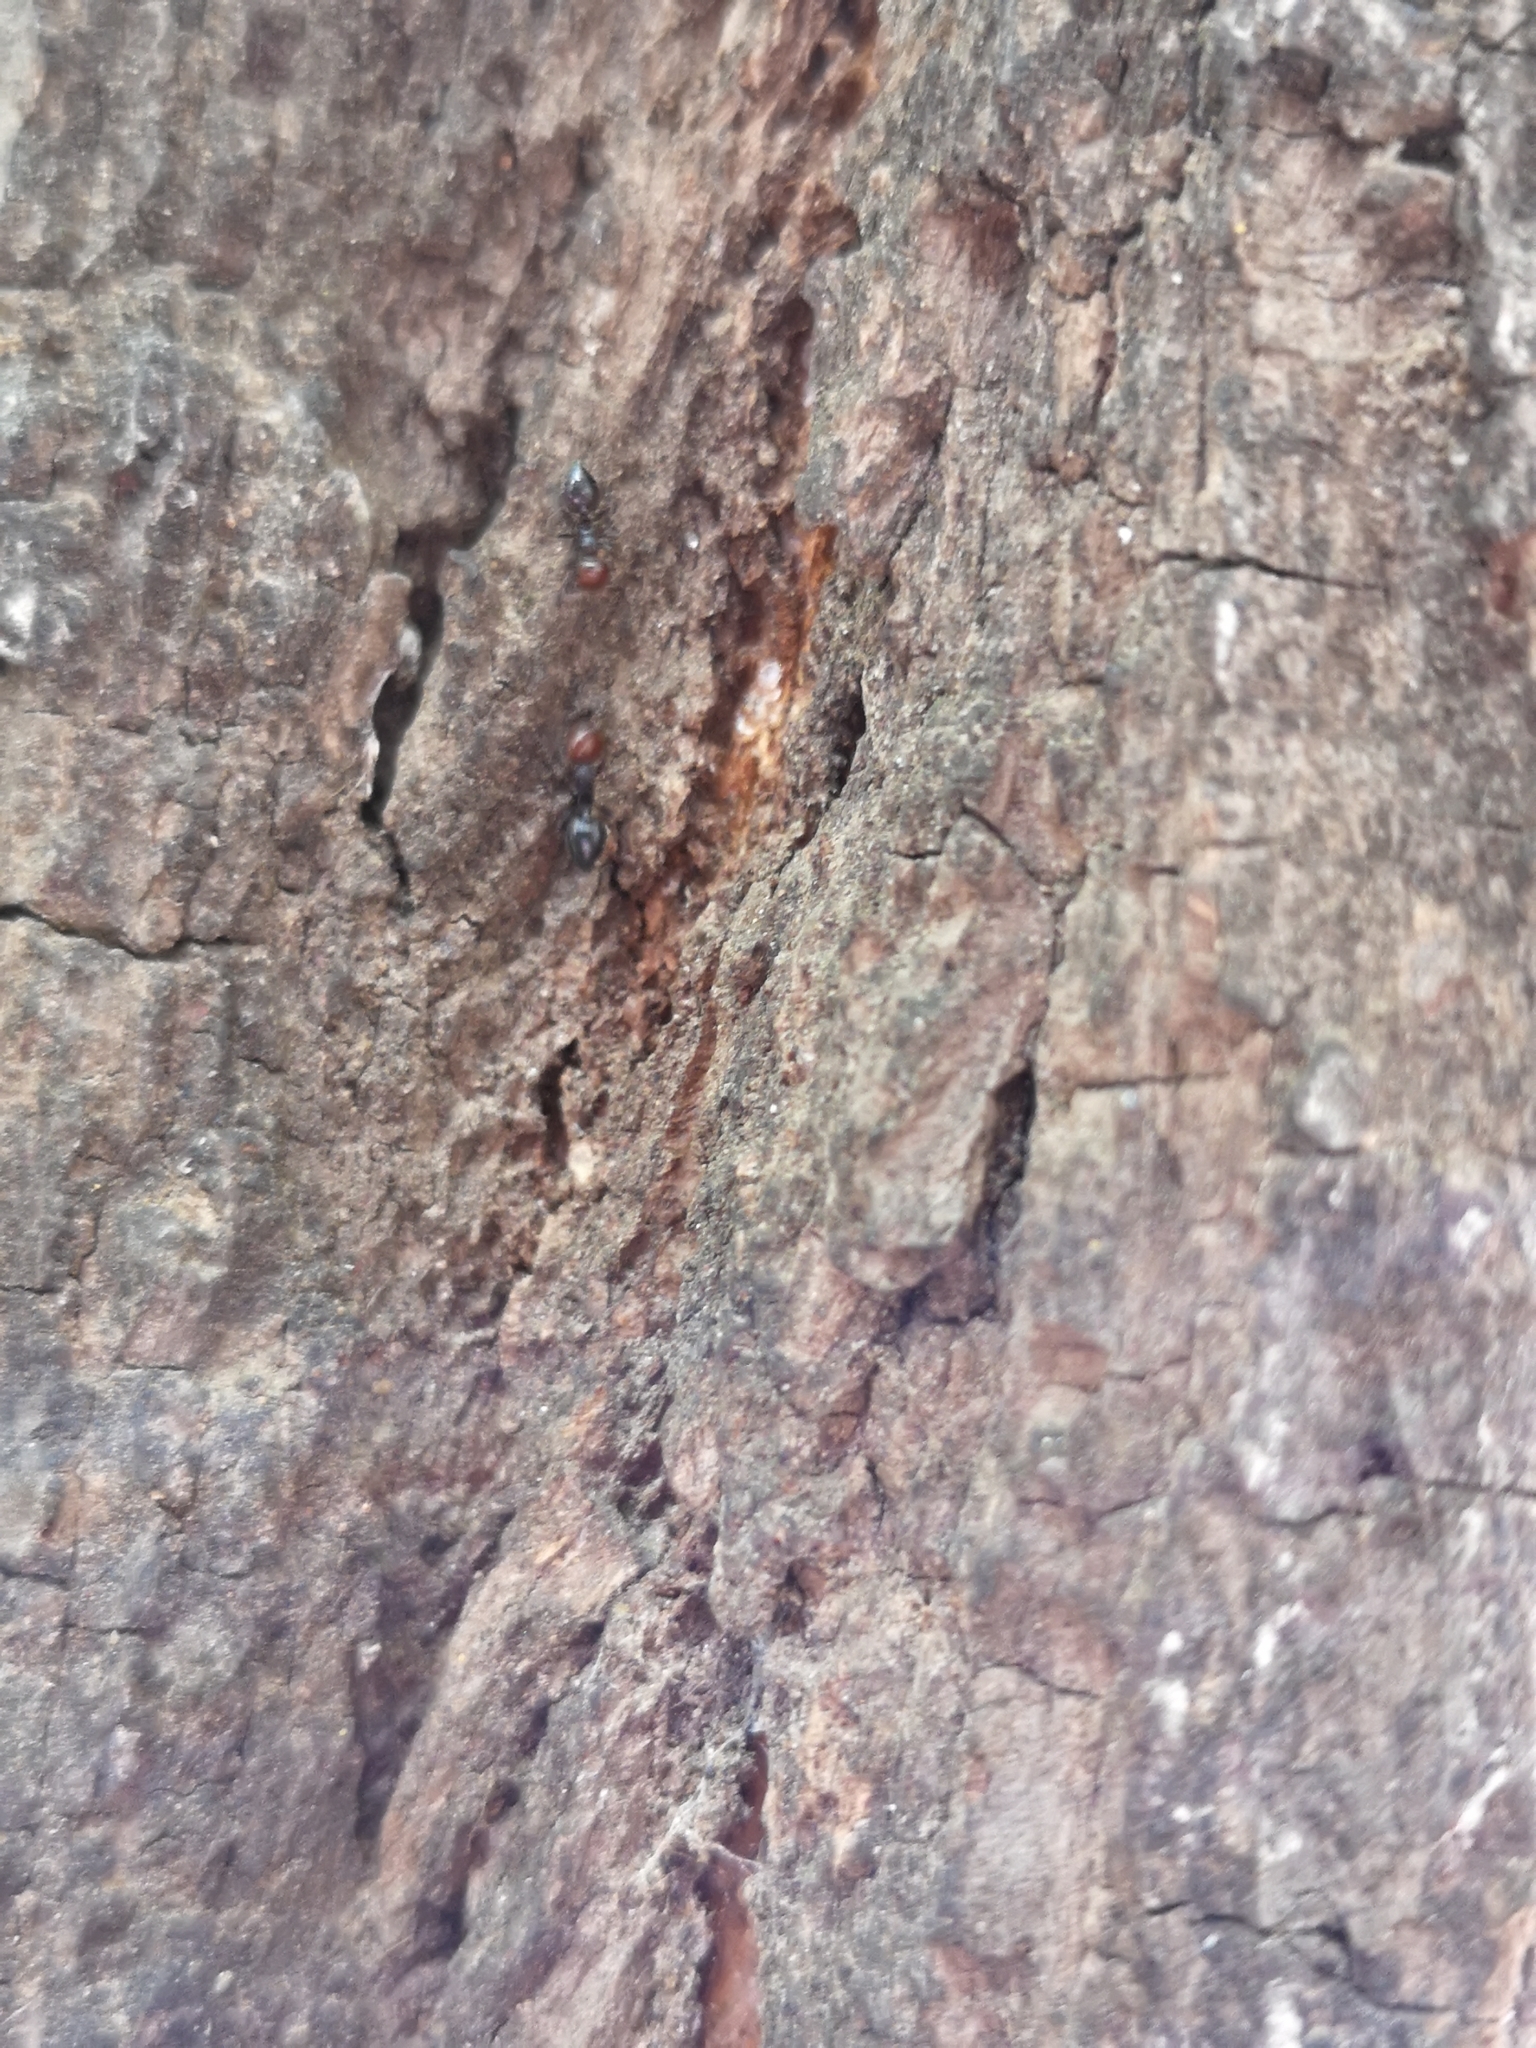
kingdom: Animalia
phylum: Arthropoda
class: Insecta
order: Hymenoptera
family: Formicidae
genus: Crematogaster
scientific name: Crematogaster scutellaris
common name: Fourmi du liège
